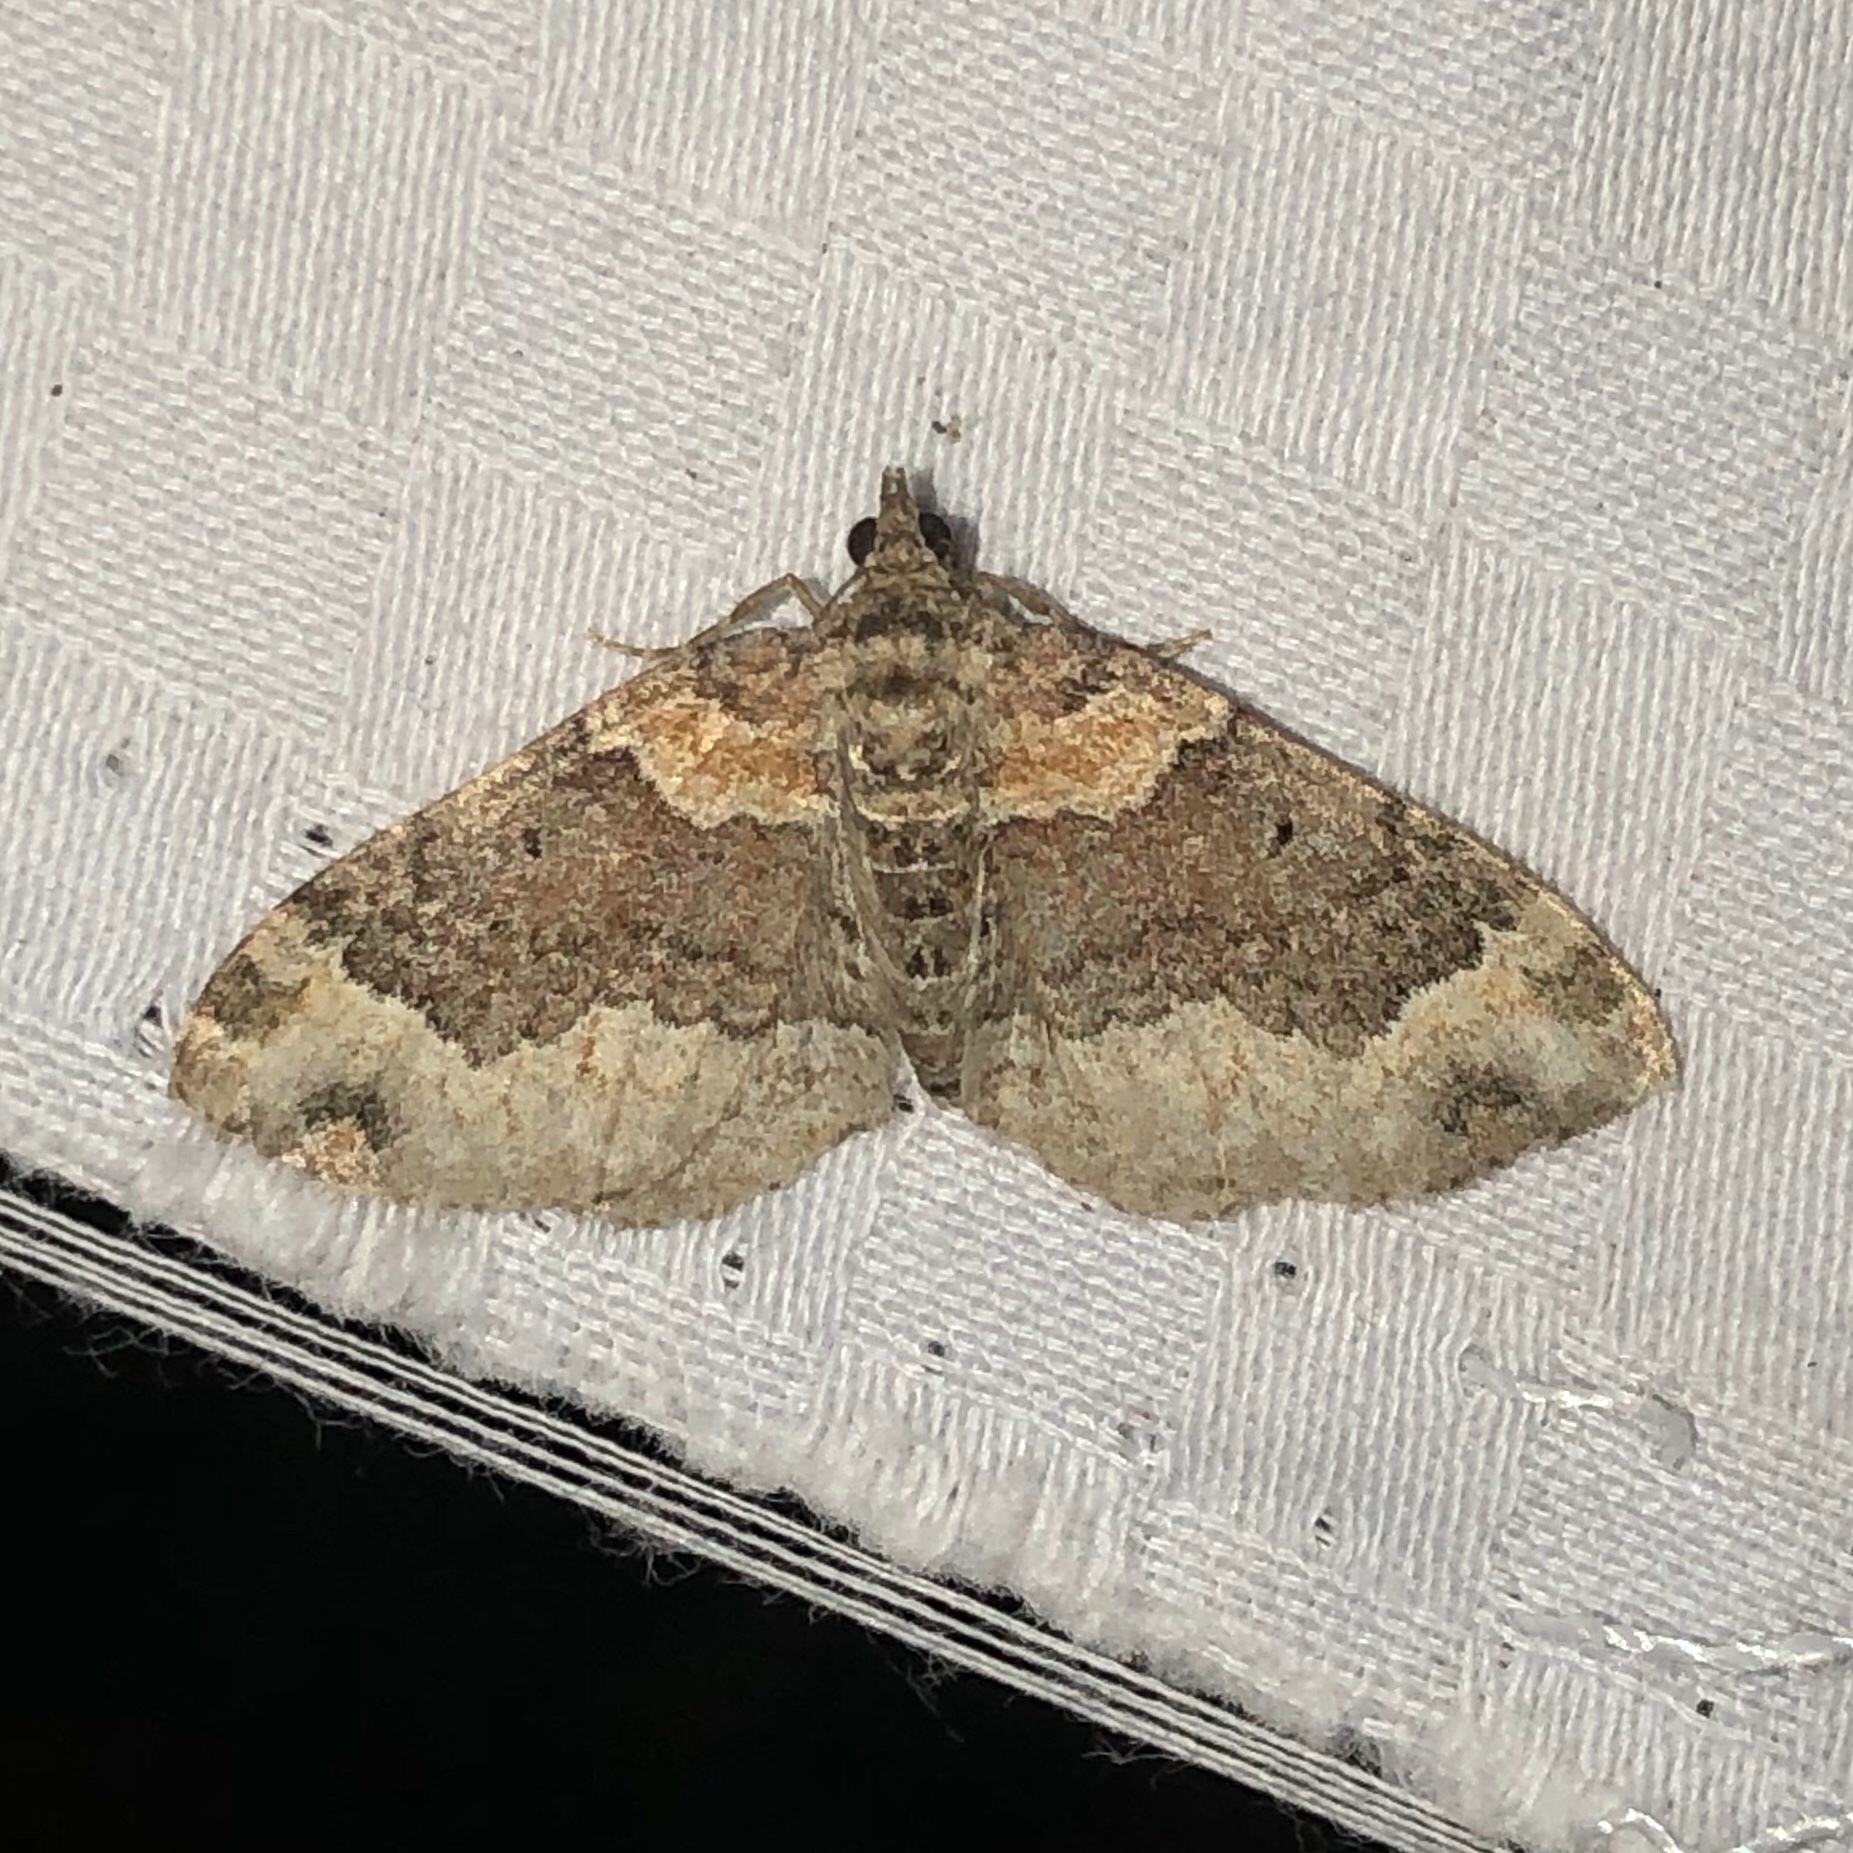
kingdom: Animalia
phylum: Arthropoda
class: Insecta
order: Lepidoptera
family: Geometridae
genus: Xanthorhoe
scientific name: Xanthorhoe ferrugata
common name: Dark-barred twin-spot carpet
